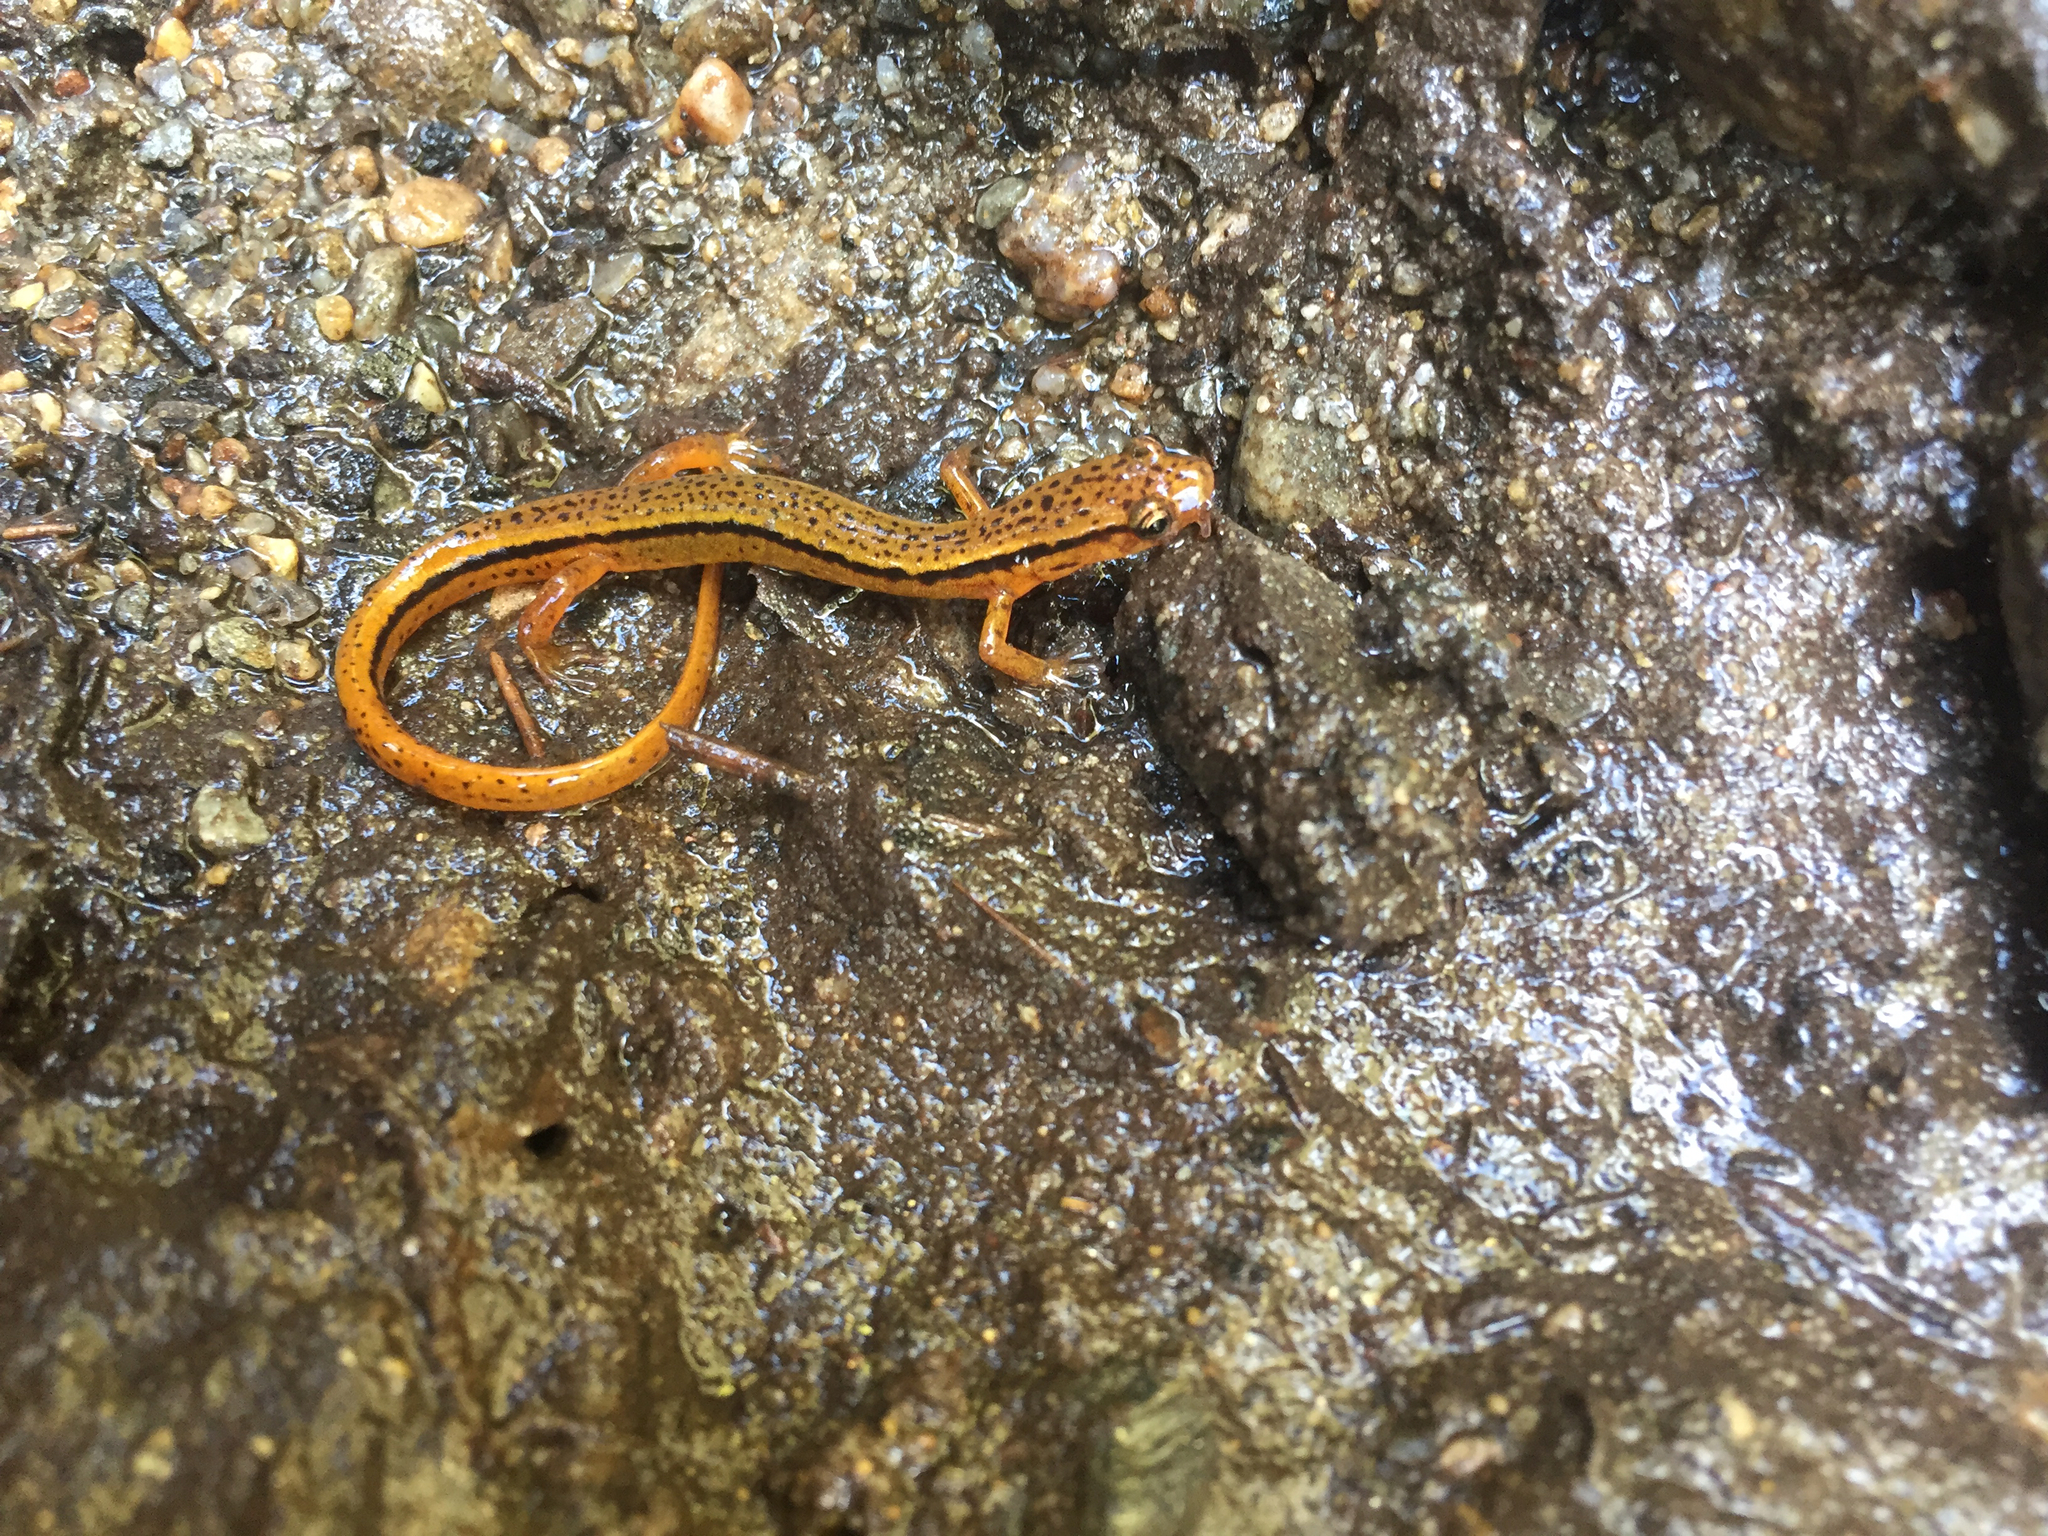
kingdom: Animalia
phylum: Chordata
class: Amphibia
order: Caudata
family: Plethodontidae
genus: Eurycea
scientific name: Eurycea wilderae
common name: Blue ridge two-lined salamander
